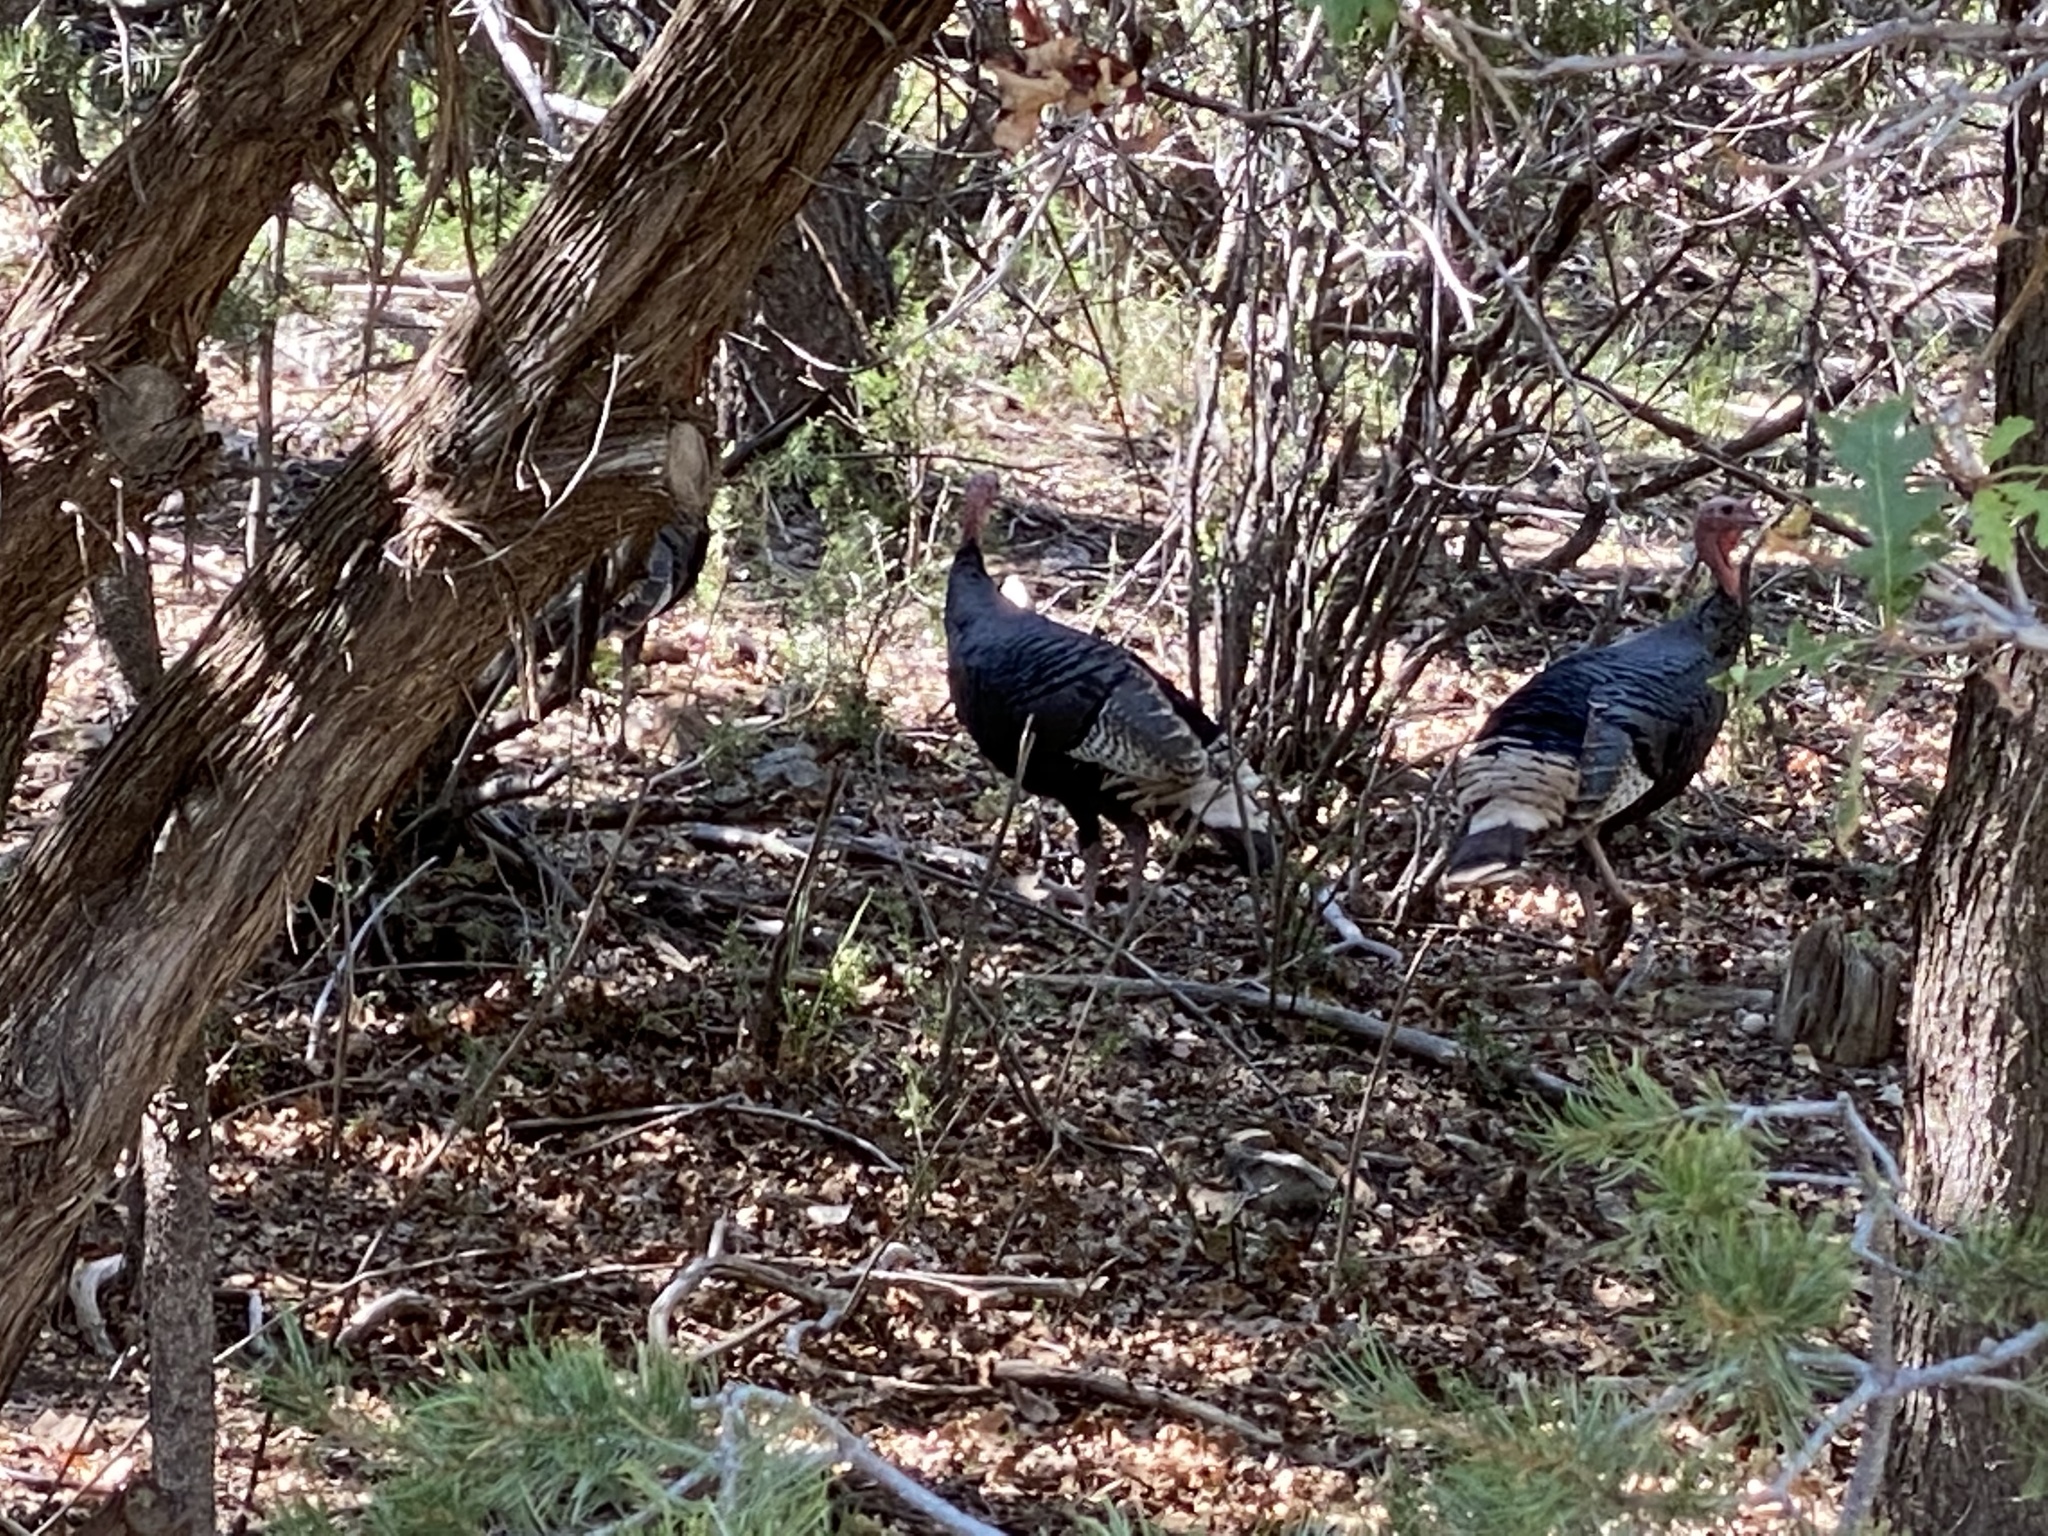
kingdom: Animalia
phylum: Chordata
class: Aves
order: Galliformes
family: Phasianidae
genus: Meleagris
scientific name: Meleagris gallopavo
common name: Wild turkey
